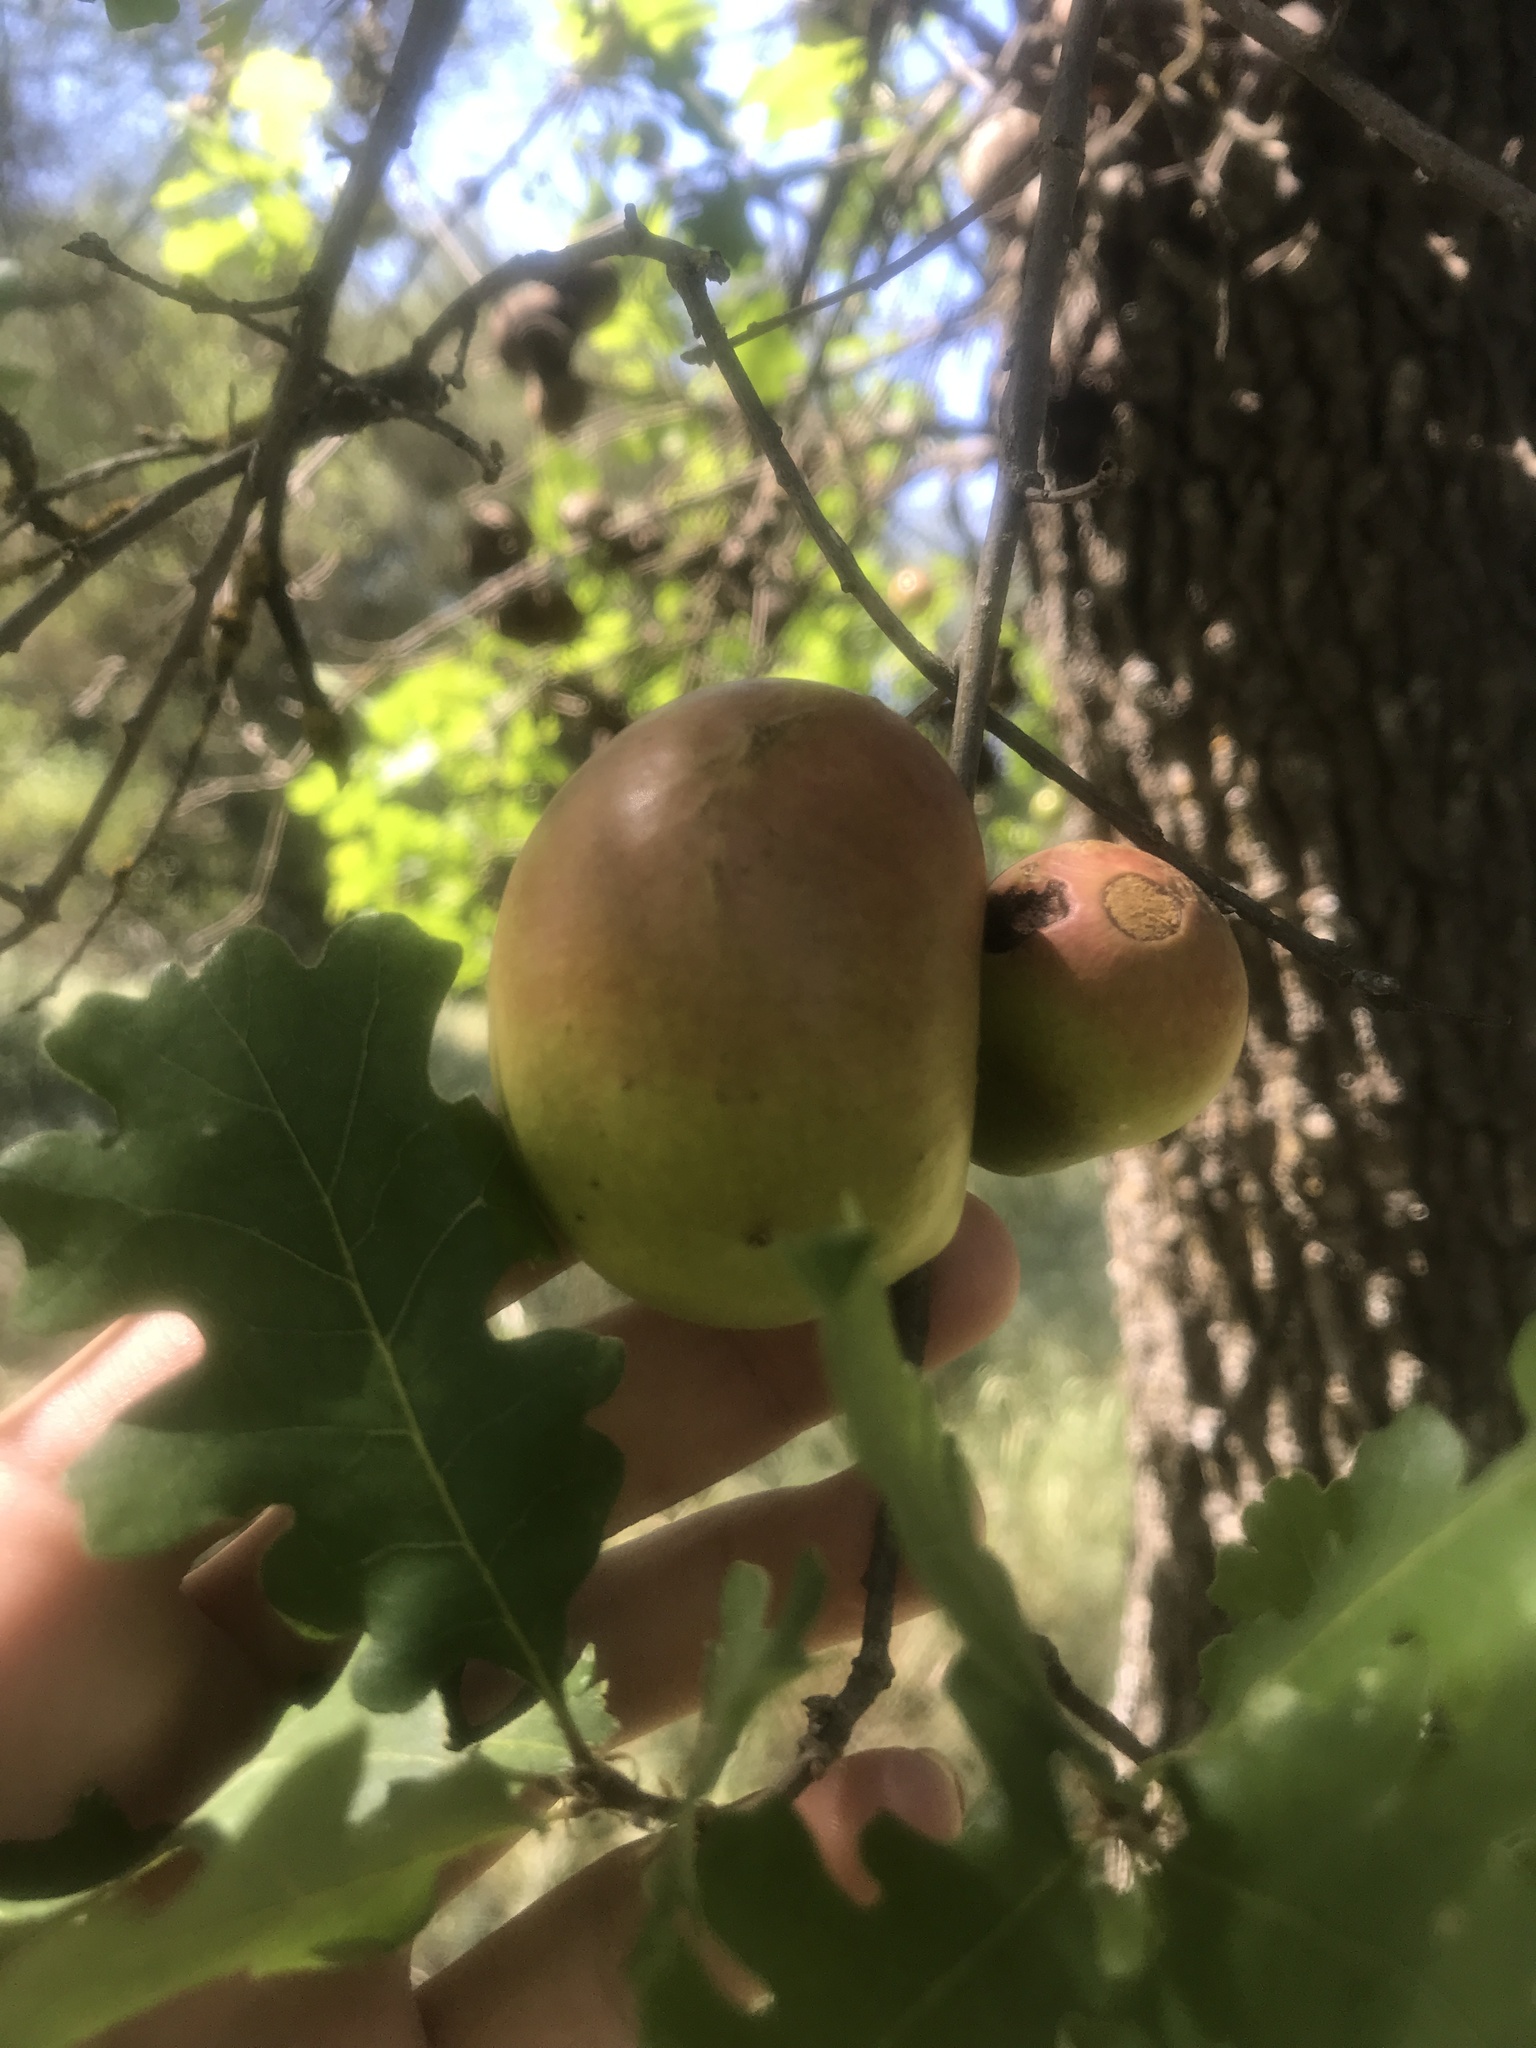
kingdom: Animalia
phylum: Arthropoda
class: Insecta
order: Hymenoptera
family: Cynipidae
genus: Andricus
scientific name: Andricus quercuscalifornicus
